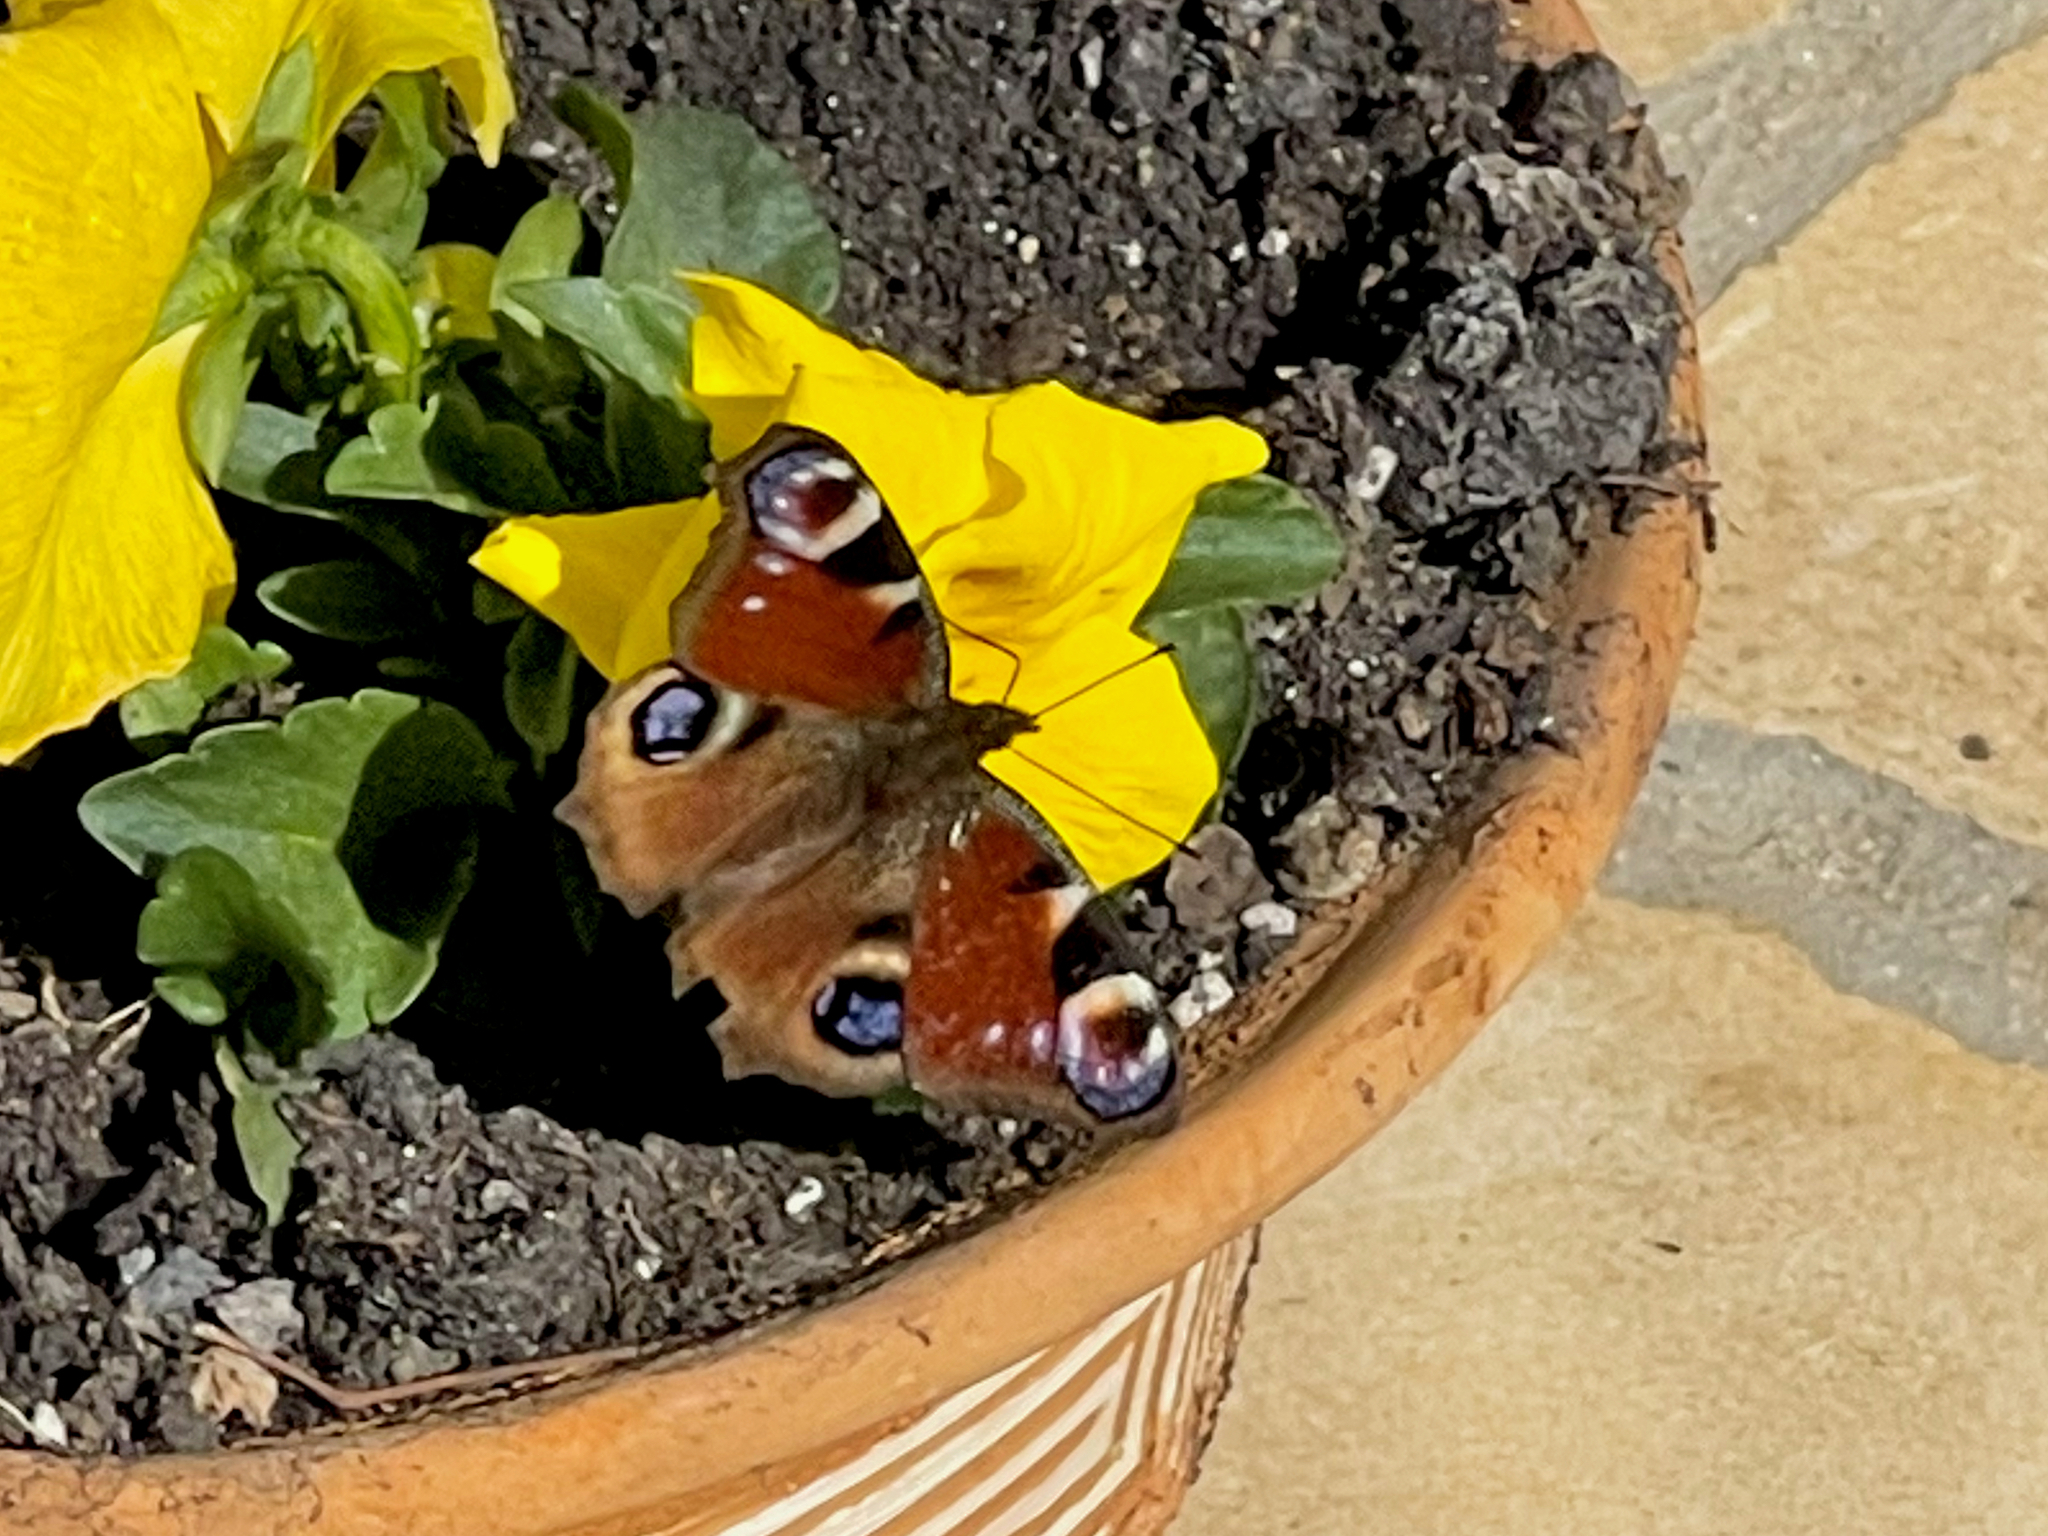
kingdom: Animalia
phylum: Arthropoda
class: Insecta
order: Lepidoptera
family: Nymphalidae
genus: Aglais
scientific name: Aglais io
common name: Peacock
